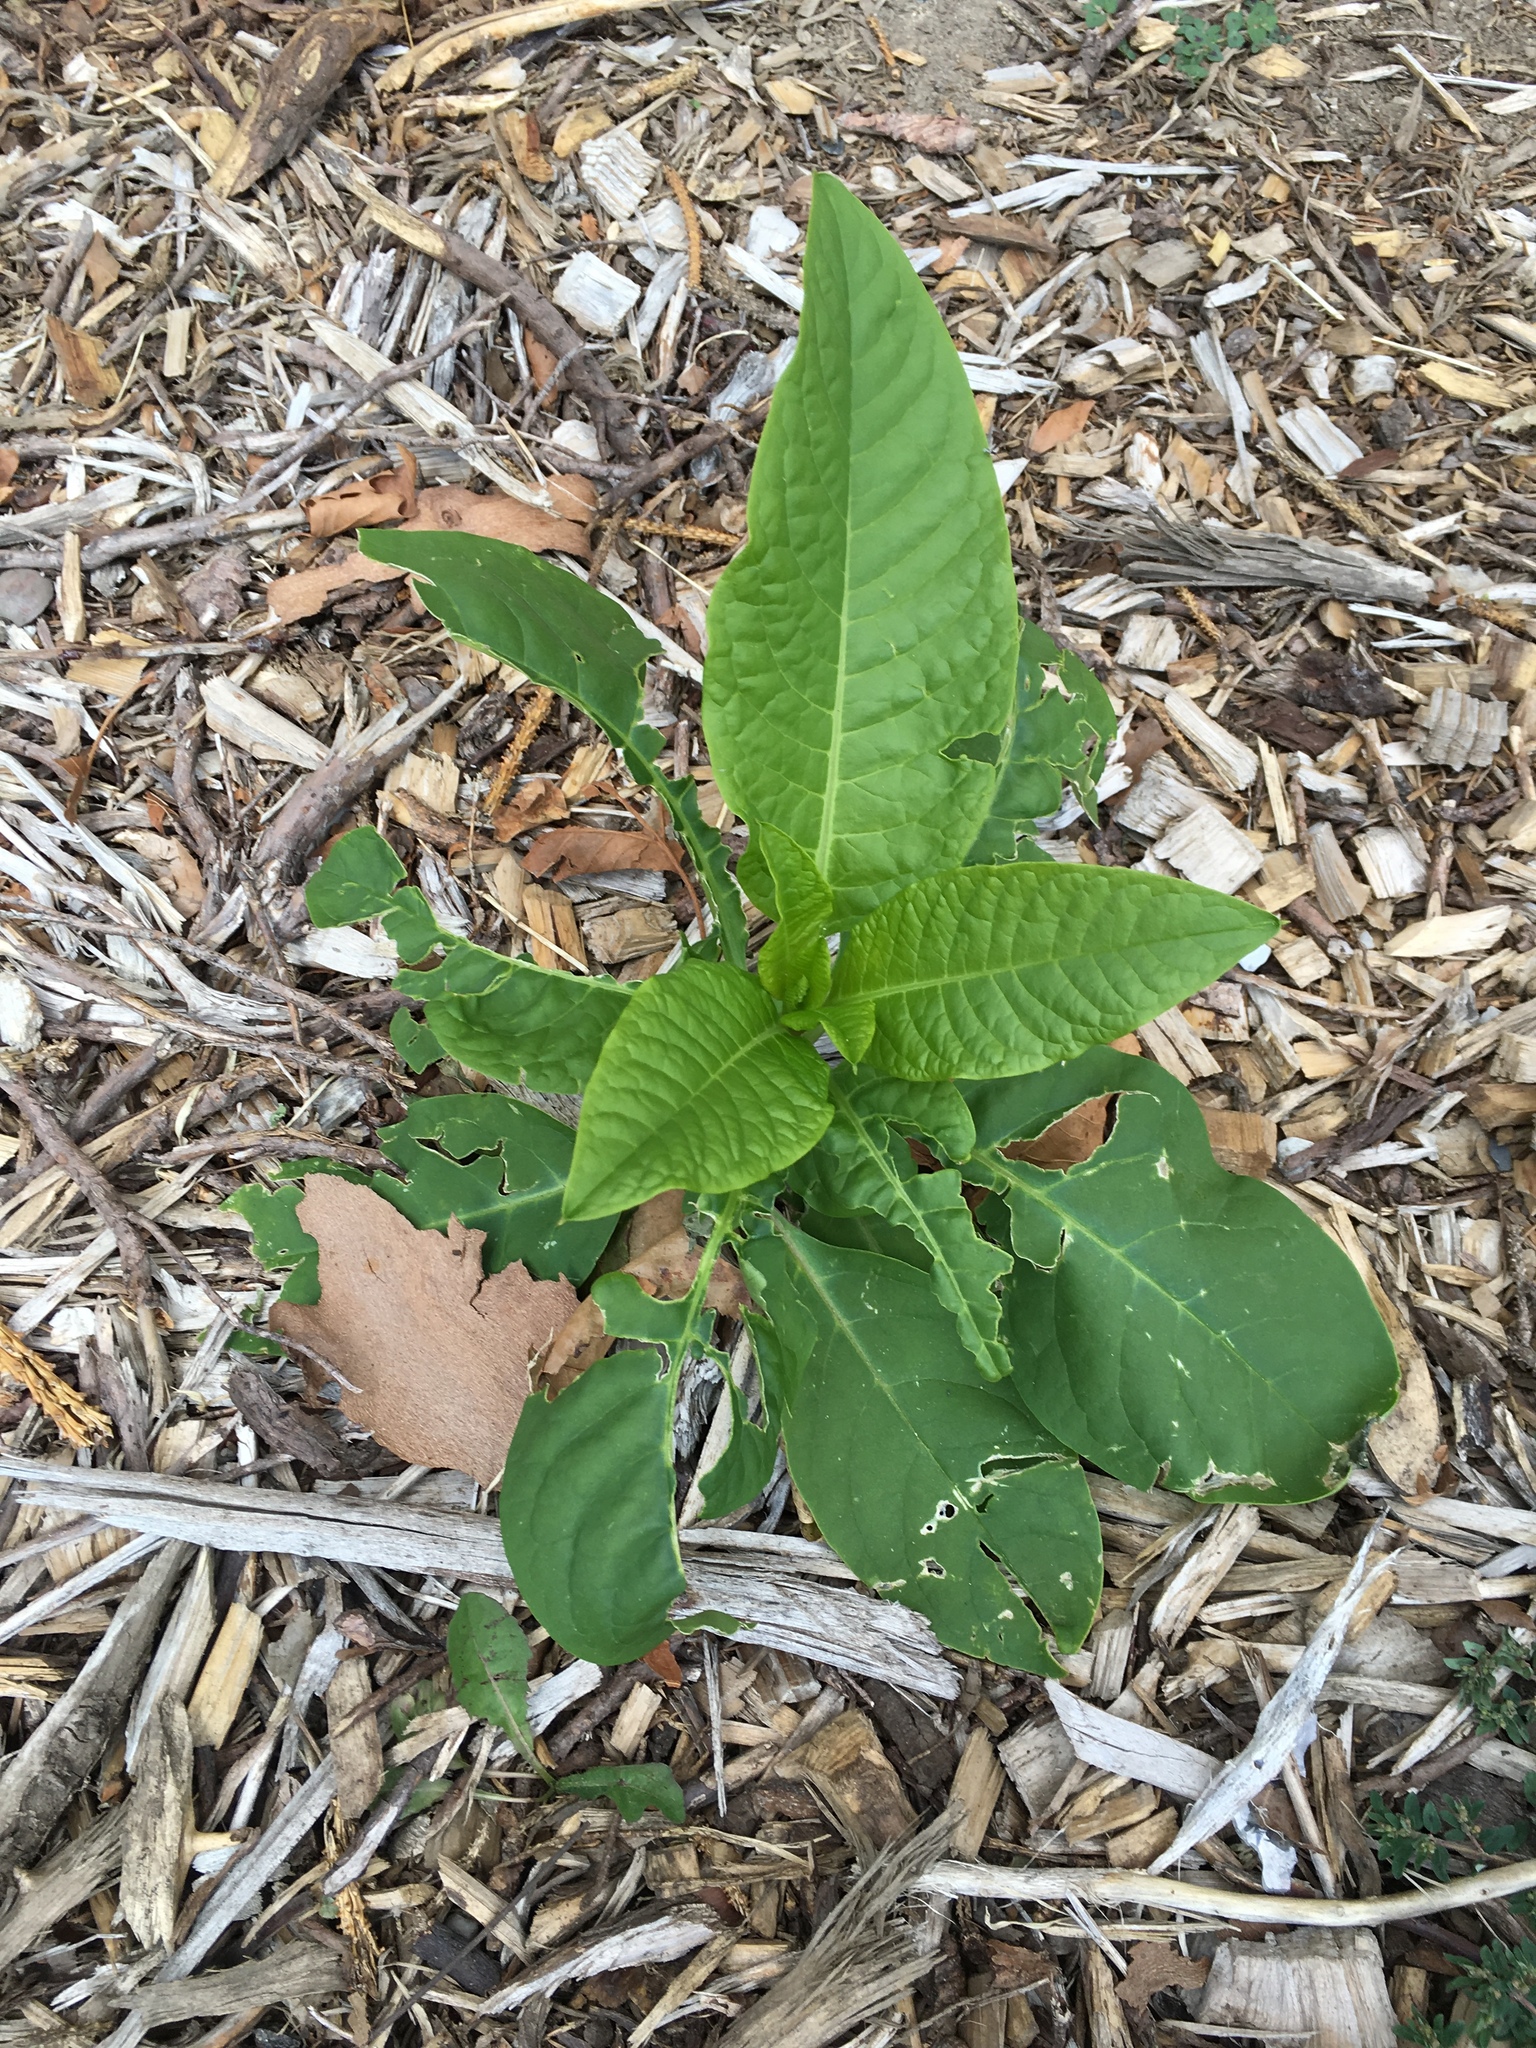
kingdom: Plantae
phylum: Tracheophyta
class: Magnoliopsida
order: Caryophyllales
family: Phytolaccaceae
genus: Phytolacca
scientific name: Phytolacca americana
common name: American pokeweed
